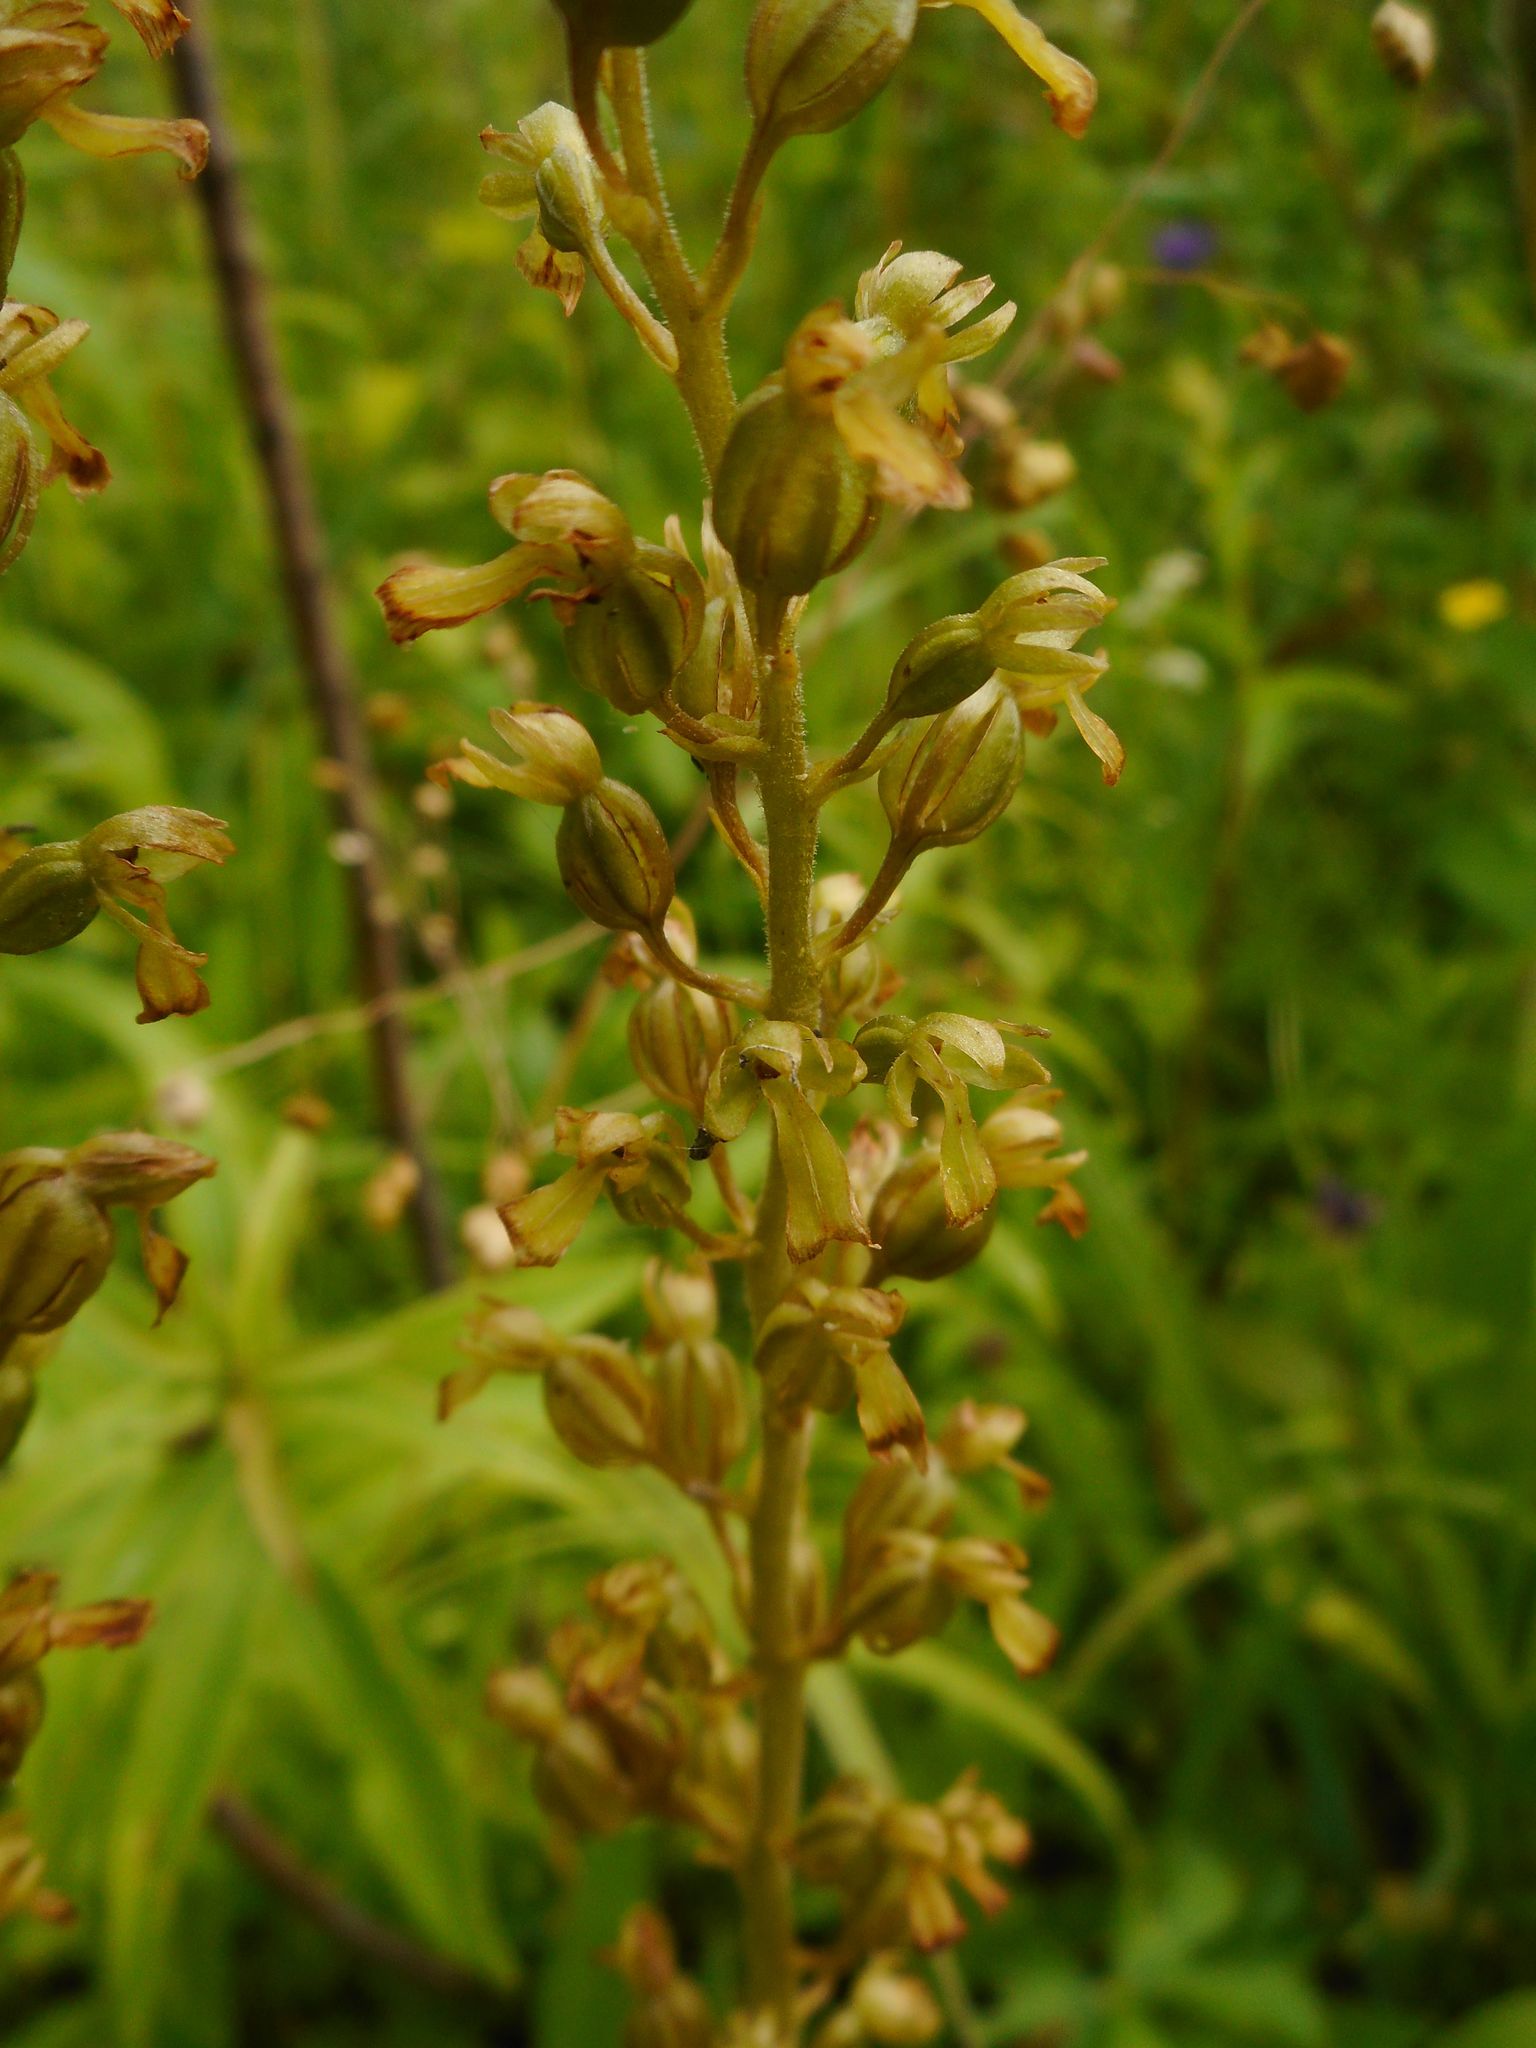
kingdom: Plantae
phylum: Tracheophyta
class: Liliopsida
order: Asparagales
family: Orchidaceae
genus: Neottia
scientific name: Neottia ovata
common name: Common twayblade
